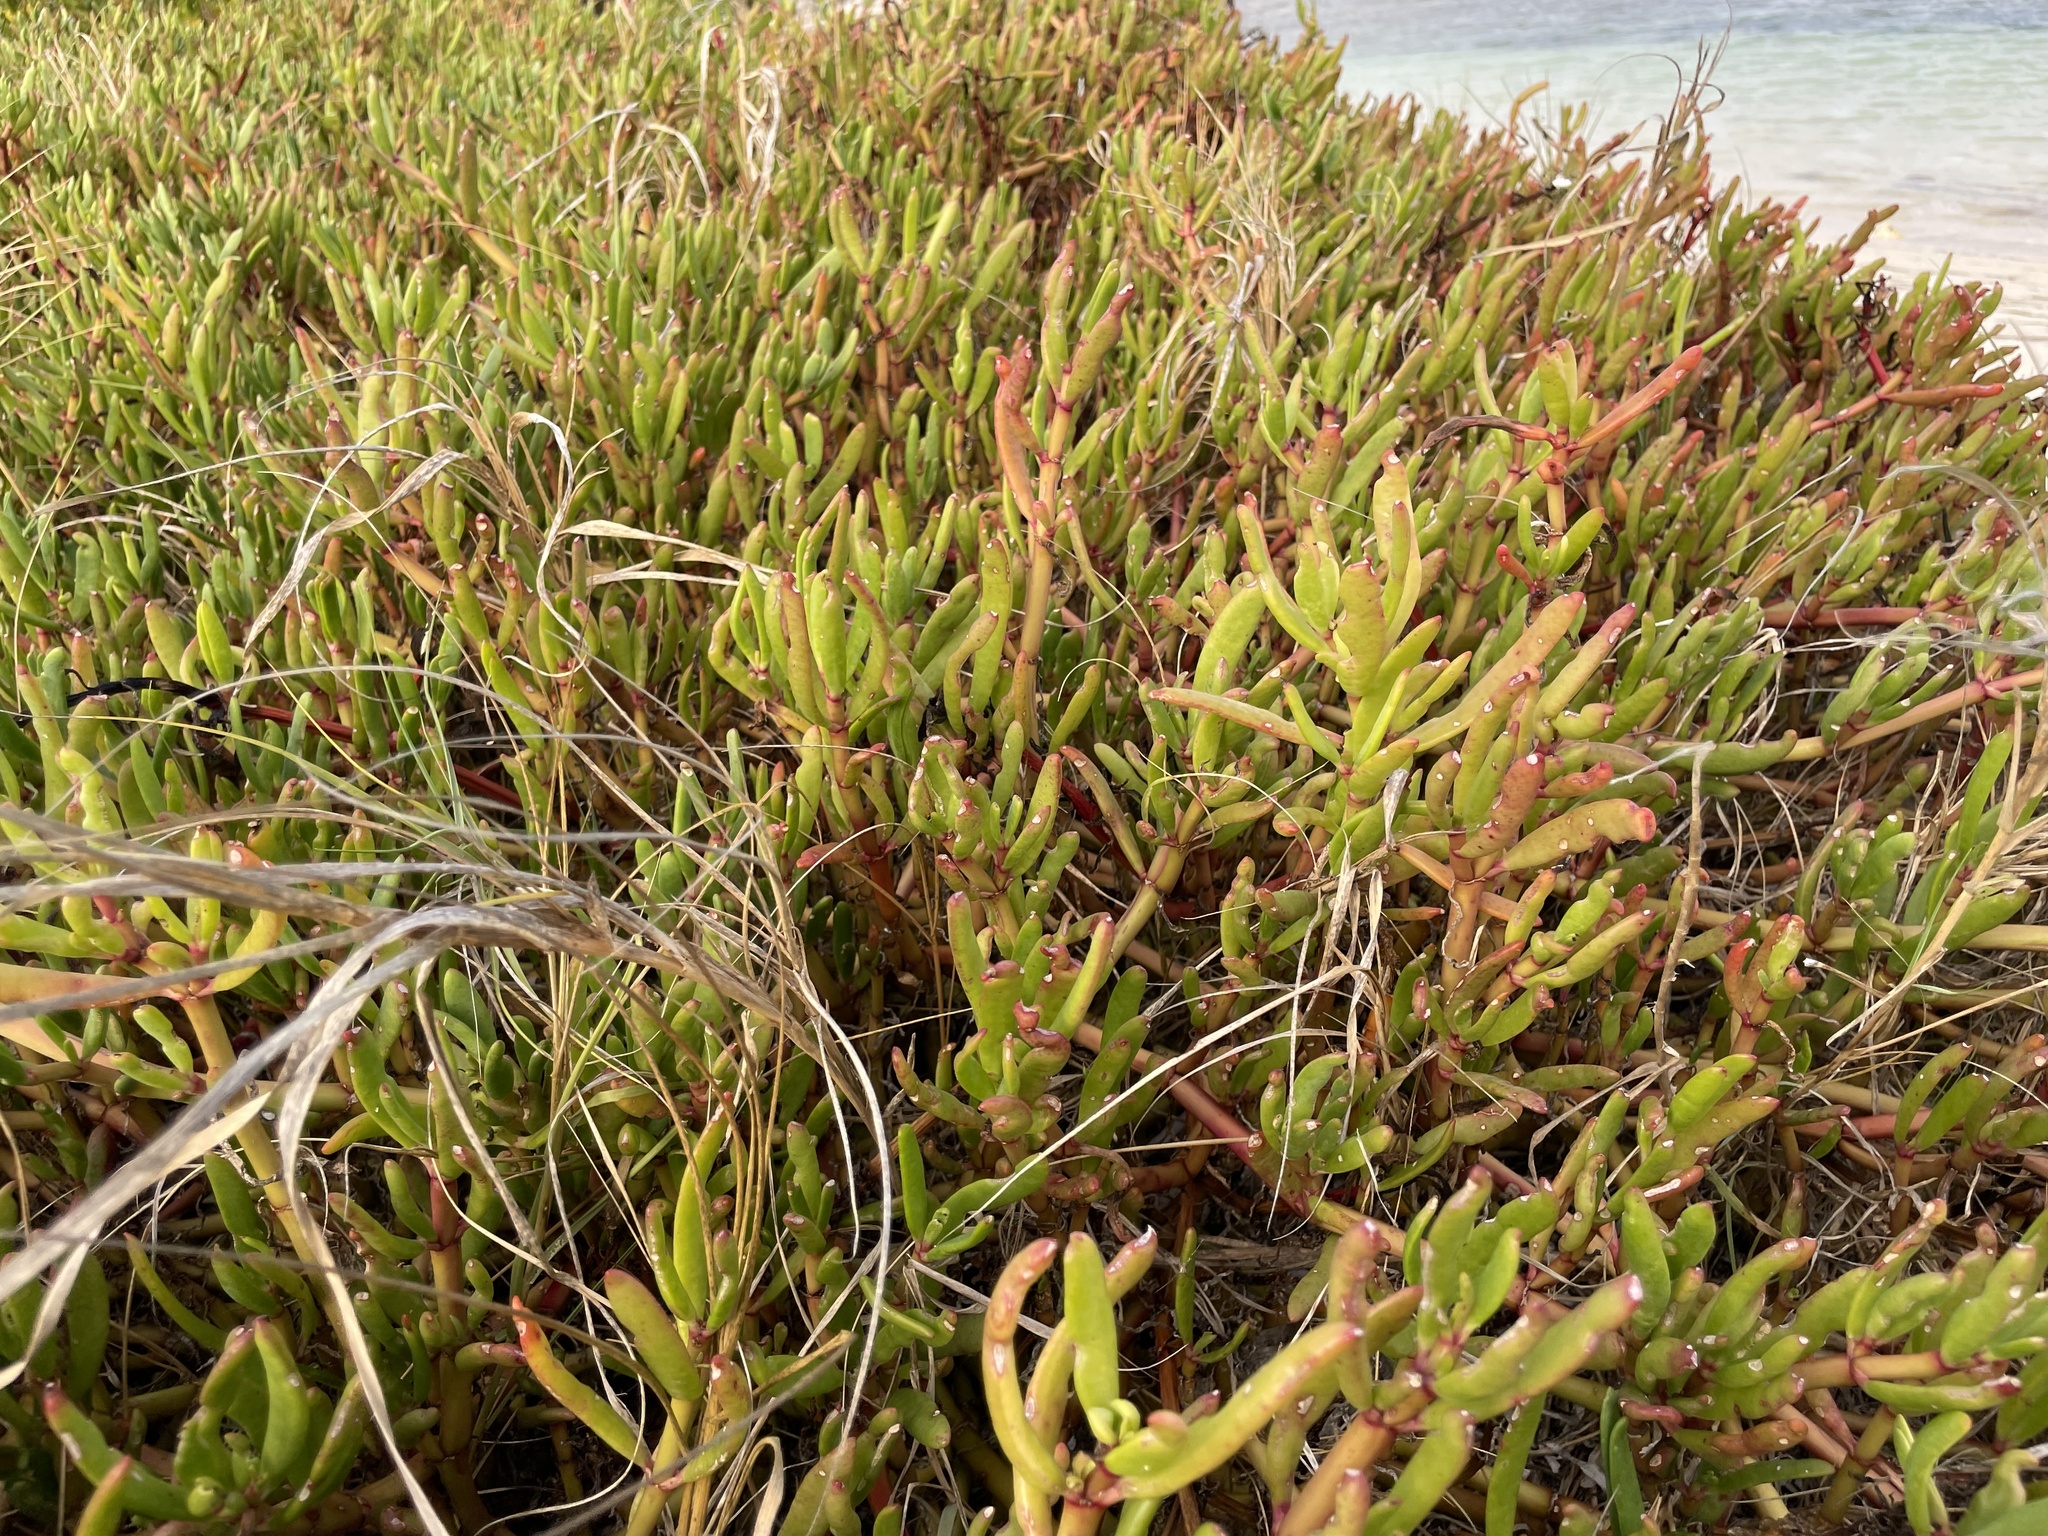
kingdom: Plantae
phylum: Tracheophyta
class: Magnoliopsida
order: Caryophyllales
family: Aizoaceae
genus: Sesuvium
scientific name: Sesuvium portulacastrum
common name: Sea-purslane
